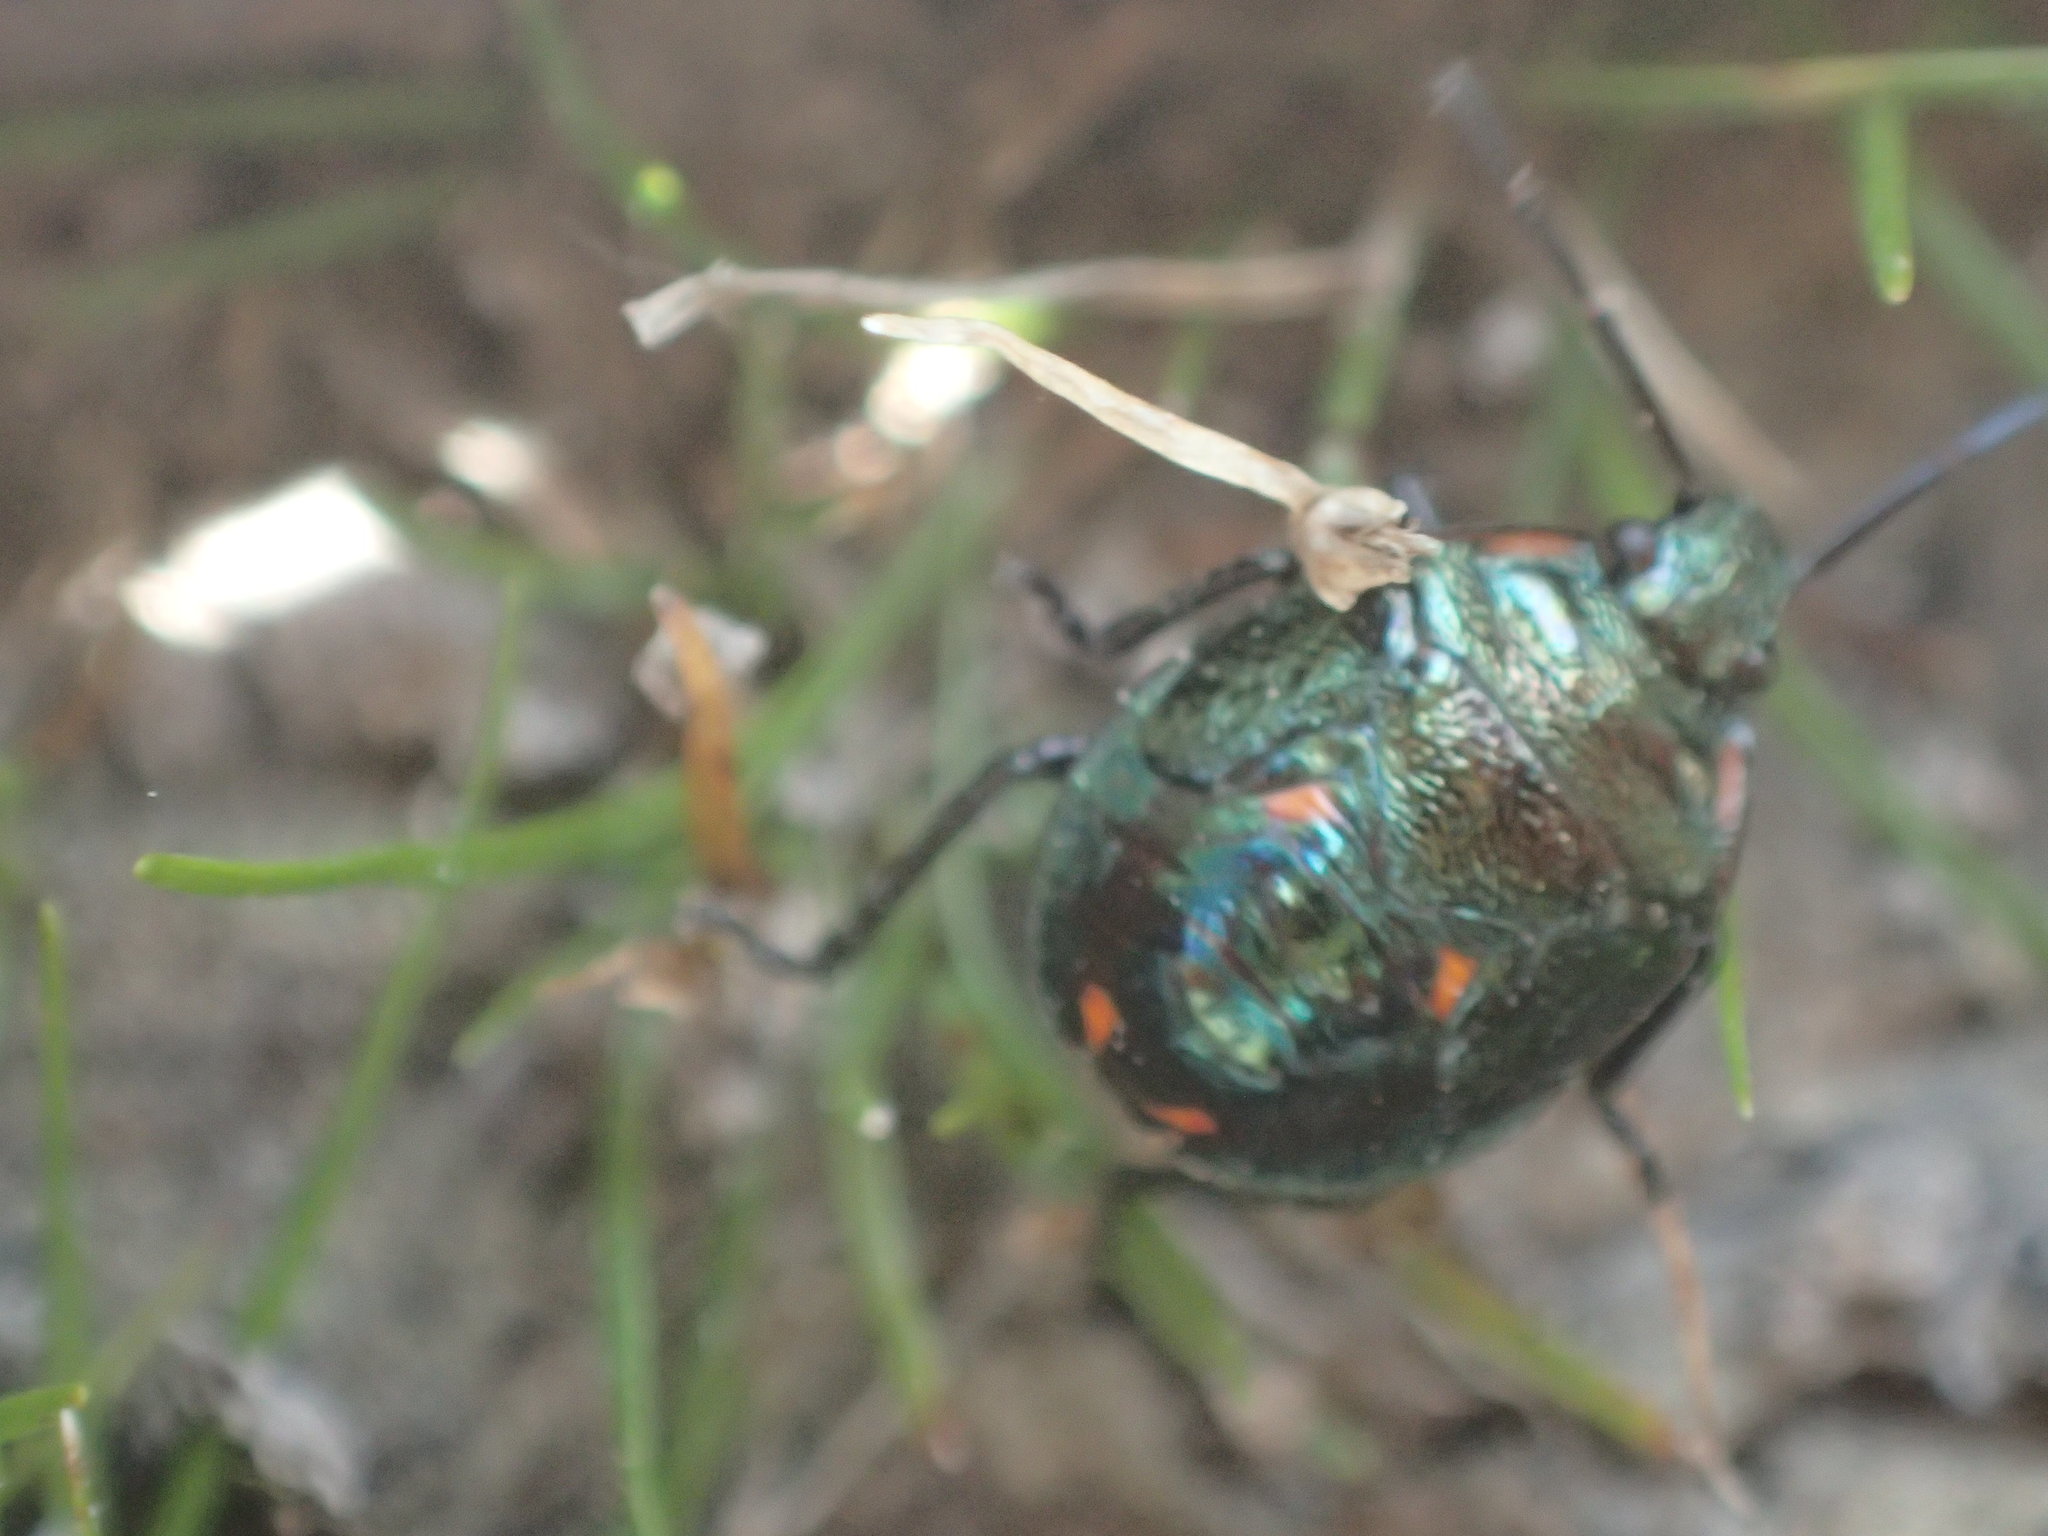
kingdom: Animalia
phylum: Arthropoda
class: Insecta
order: Hemiptera
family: Pentatomidae
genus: Cermatulus
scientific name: Cermatulus nasalis
